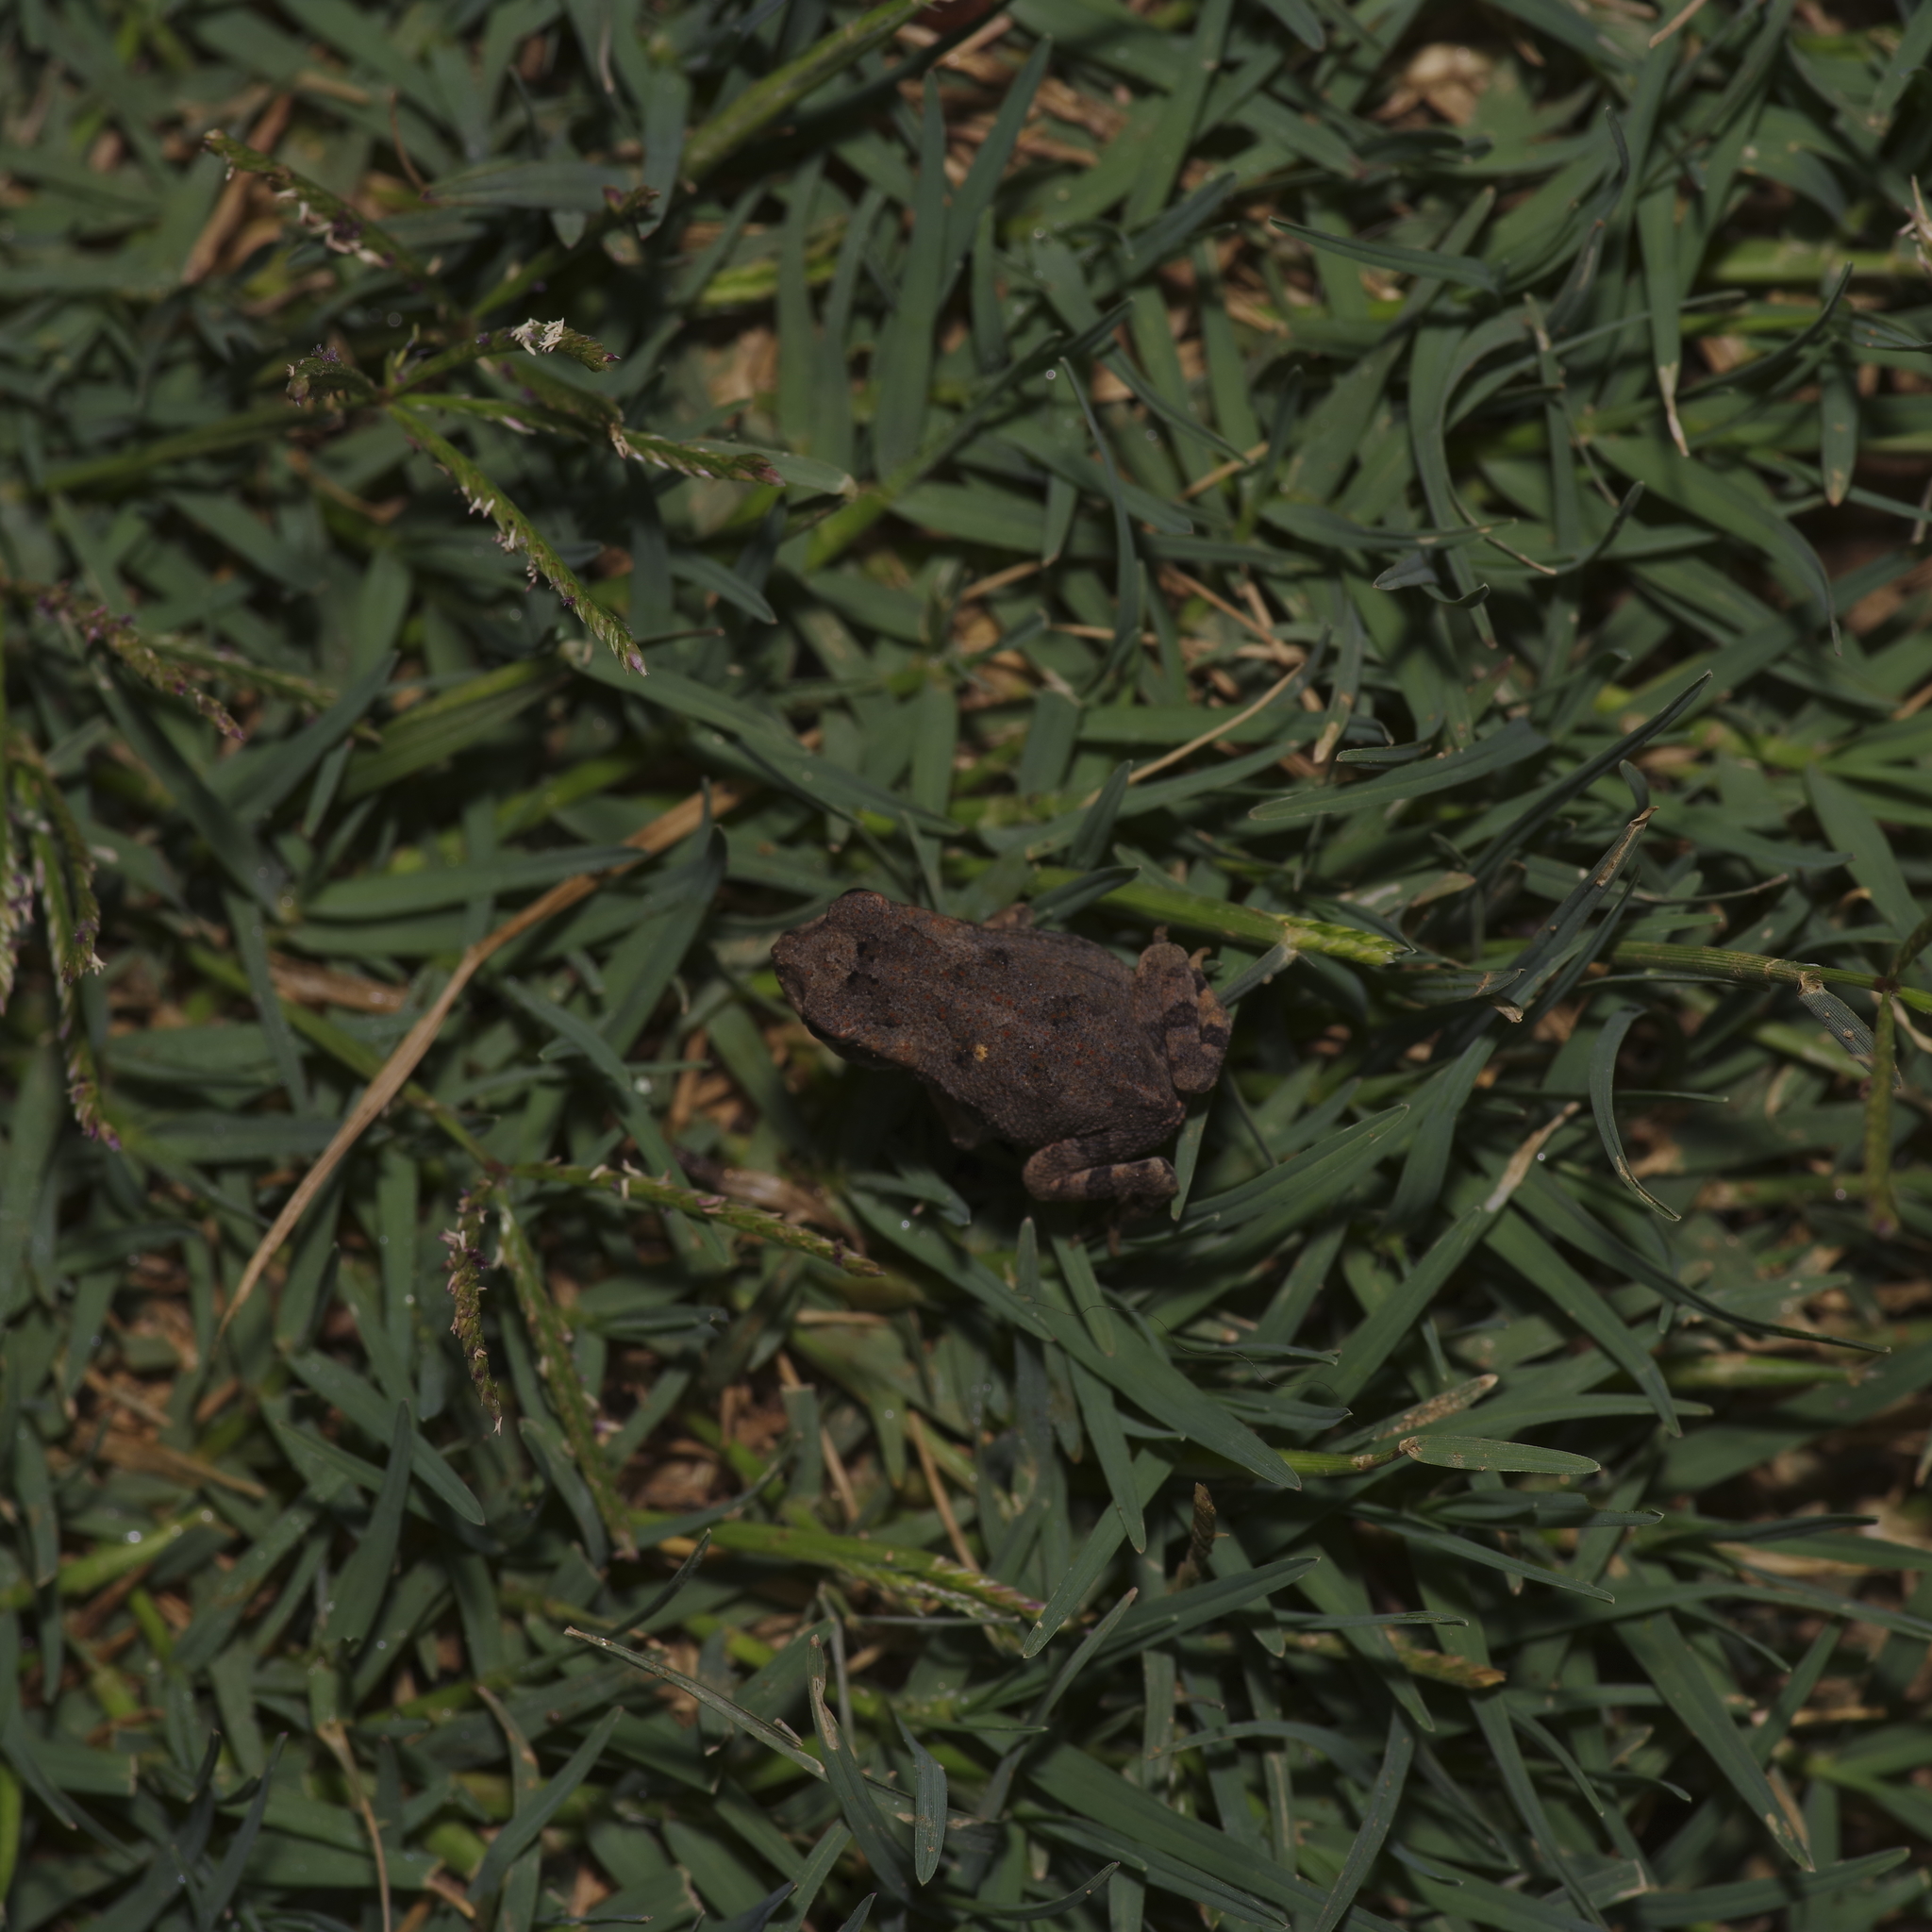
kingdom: Animalia
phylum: Chordata
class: Amphibia
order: Anura
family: Bufonidae
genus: Incilius
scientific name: Incilius nebulifer
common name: Gulf coast toad
